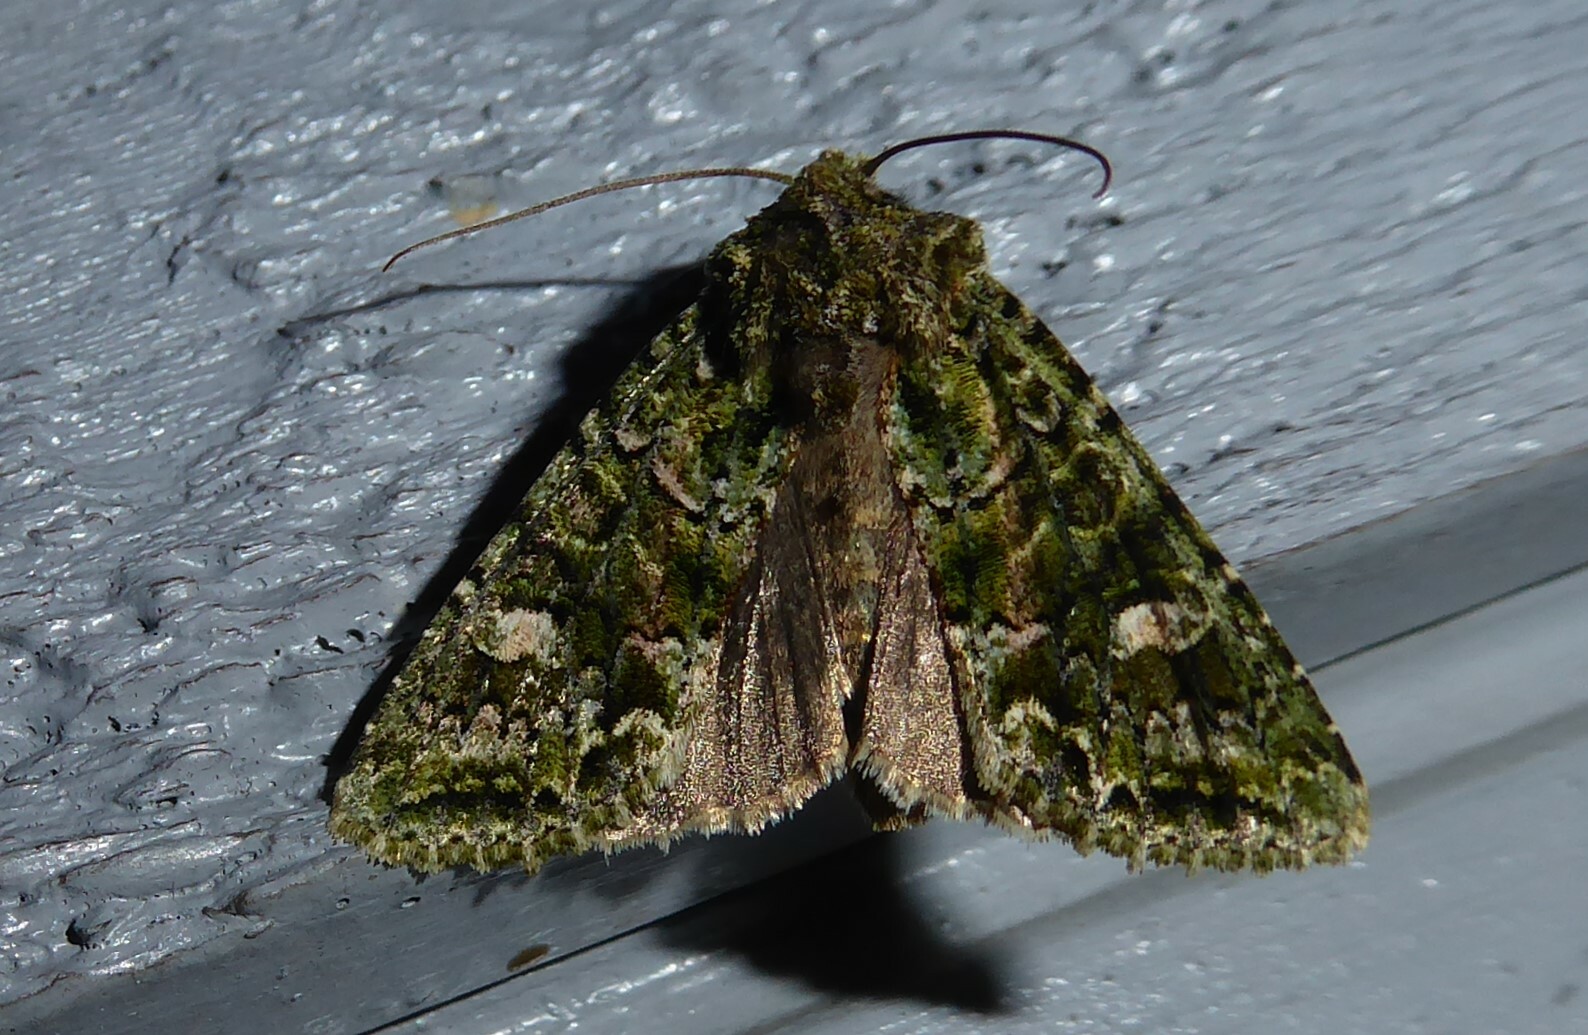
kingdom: Animalia
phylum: Arthropoda
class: Insecta
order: Lepidoptera
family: Noctuidae
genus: Ichneutica
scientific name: Ichneutica
